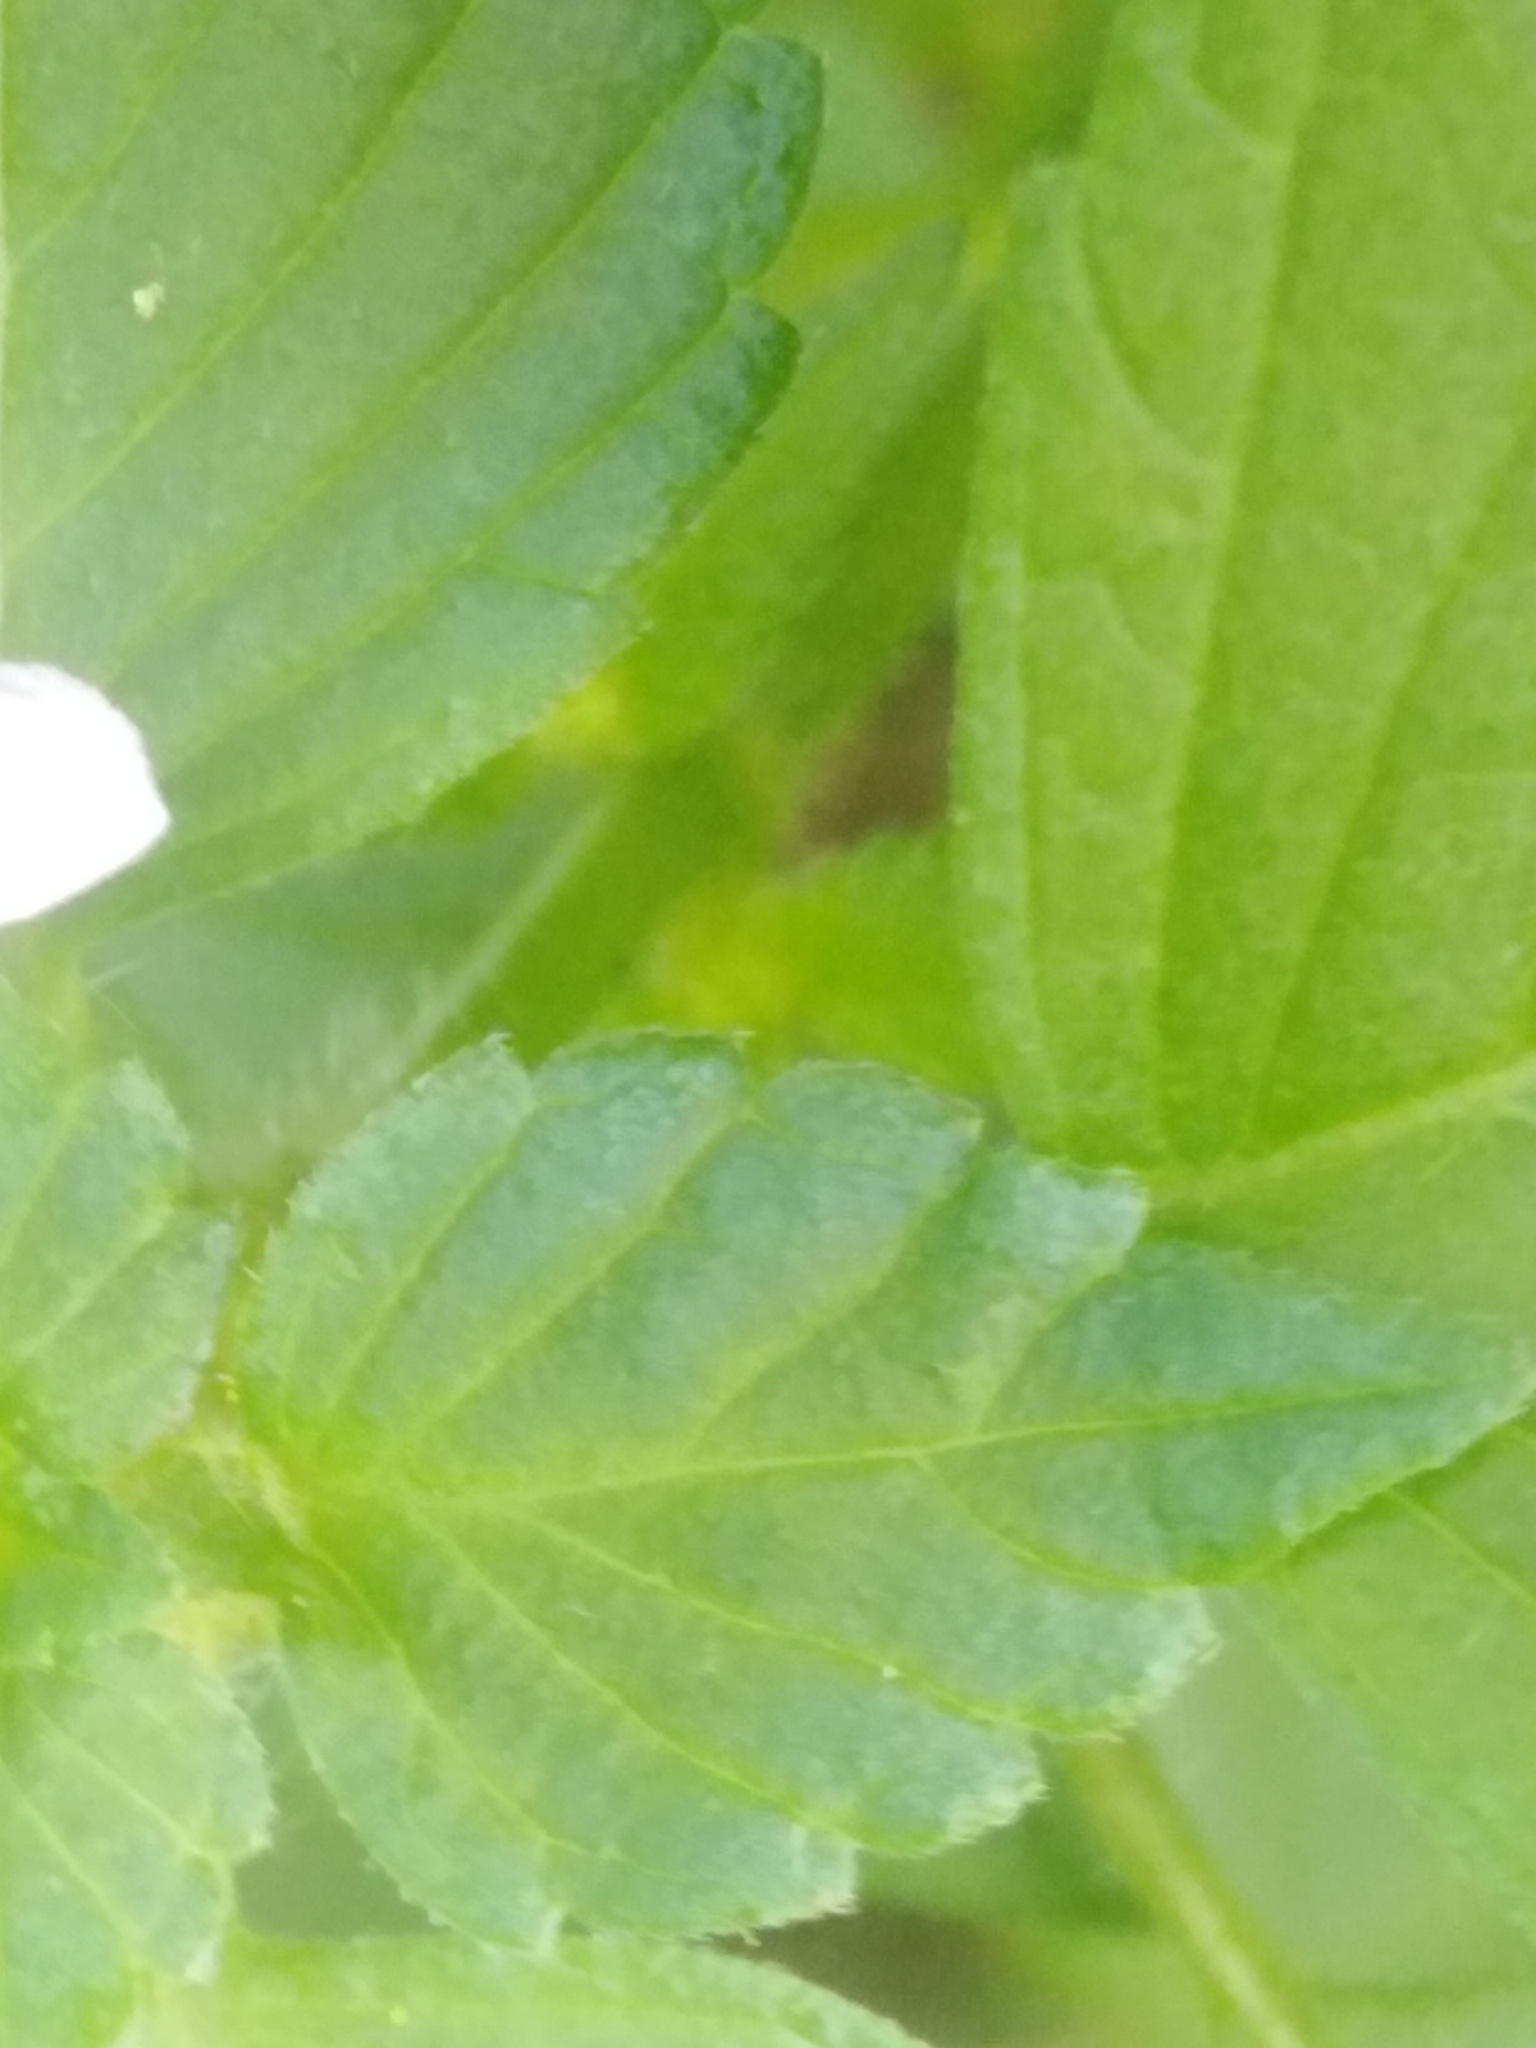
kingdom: Plantae
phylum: Tracheophyta
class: Magnoliopsida
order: Lamiales
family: Lamiaceae
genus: Galeopsis
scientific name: Galeopsis tetrahit
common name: Common hemp-nettle
